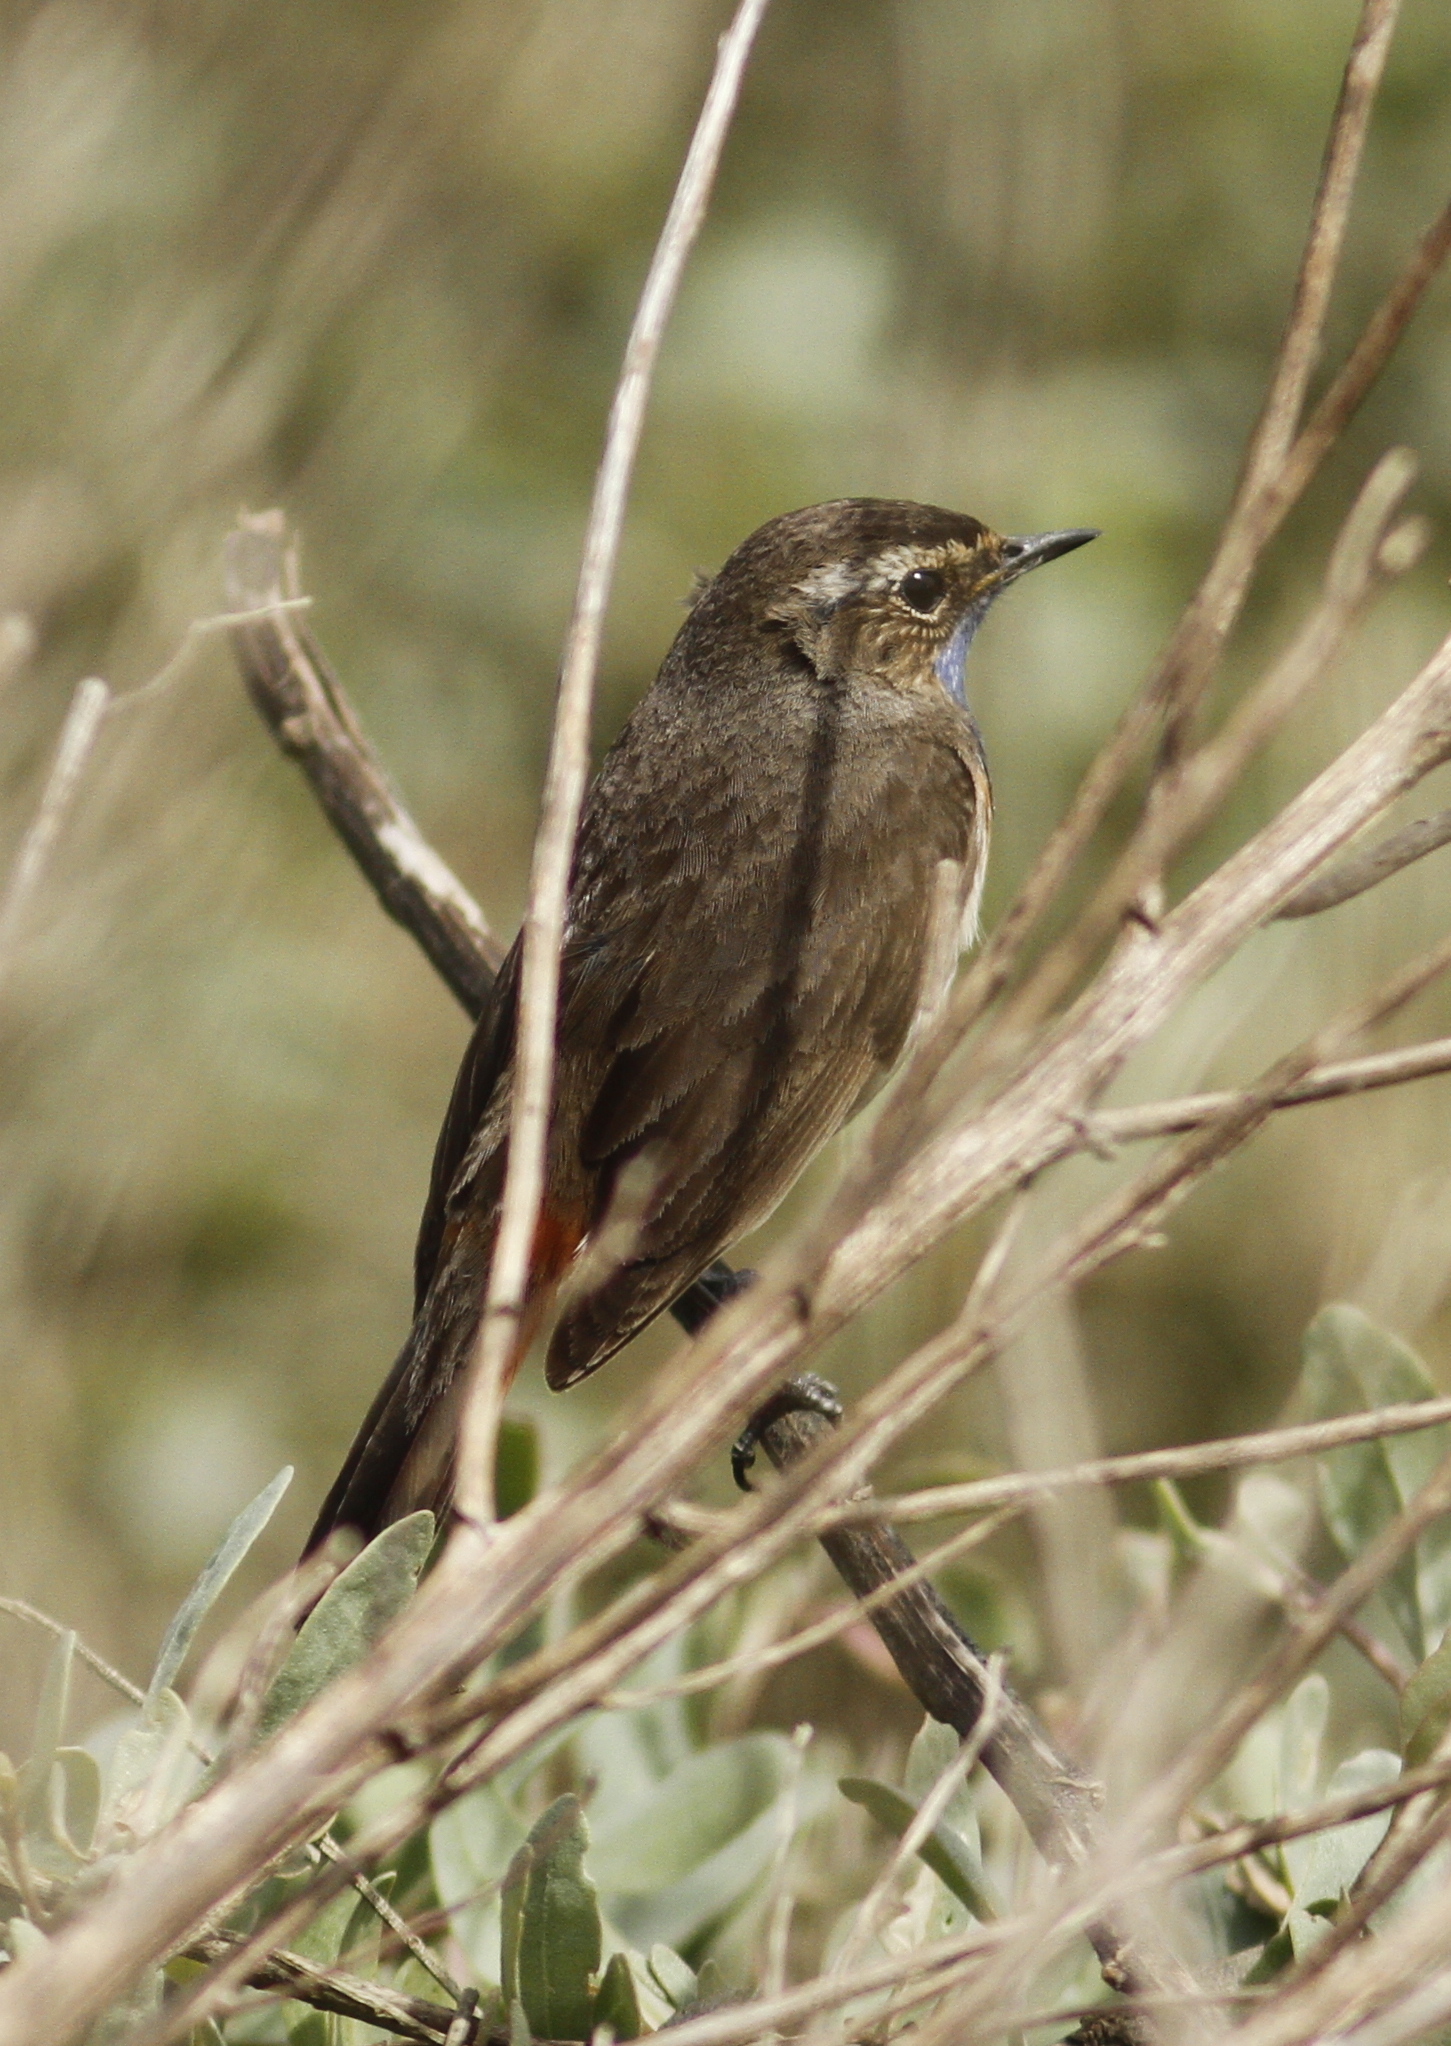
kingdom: Animalia
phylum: Chordata
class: Aves
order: Passeriformes
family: Muscicapidae
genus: Luscinia
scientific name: Luscinia svecica
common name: Bluethroat
